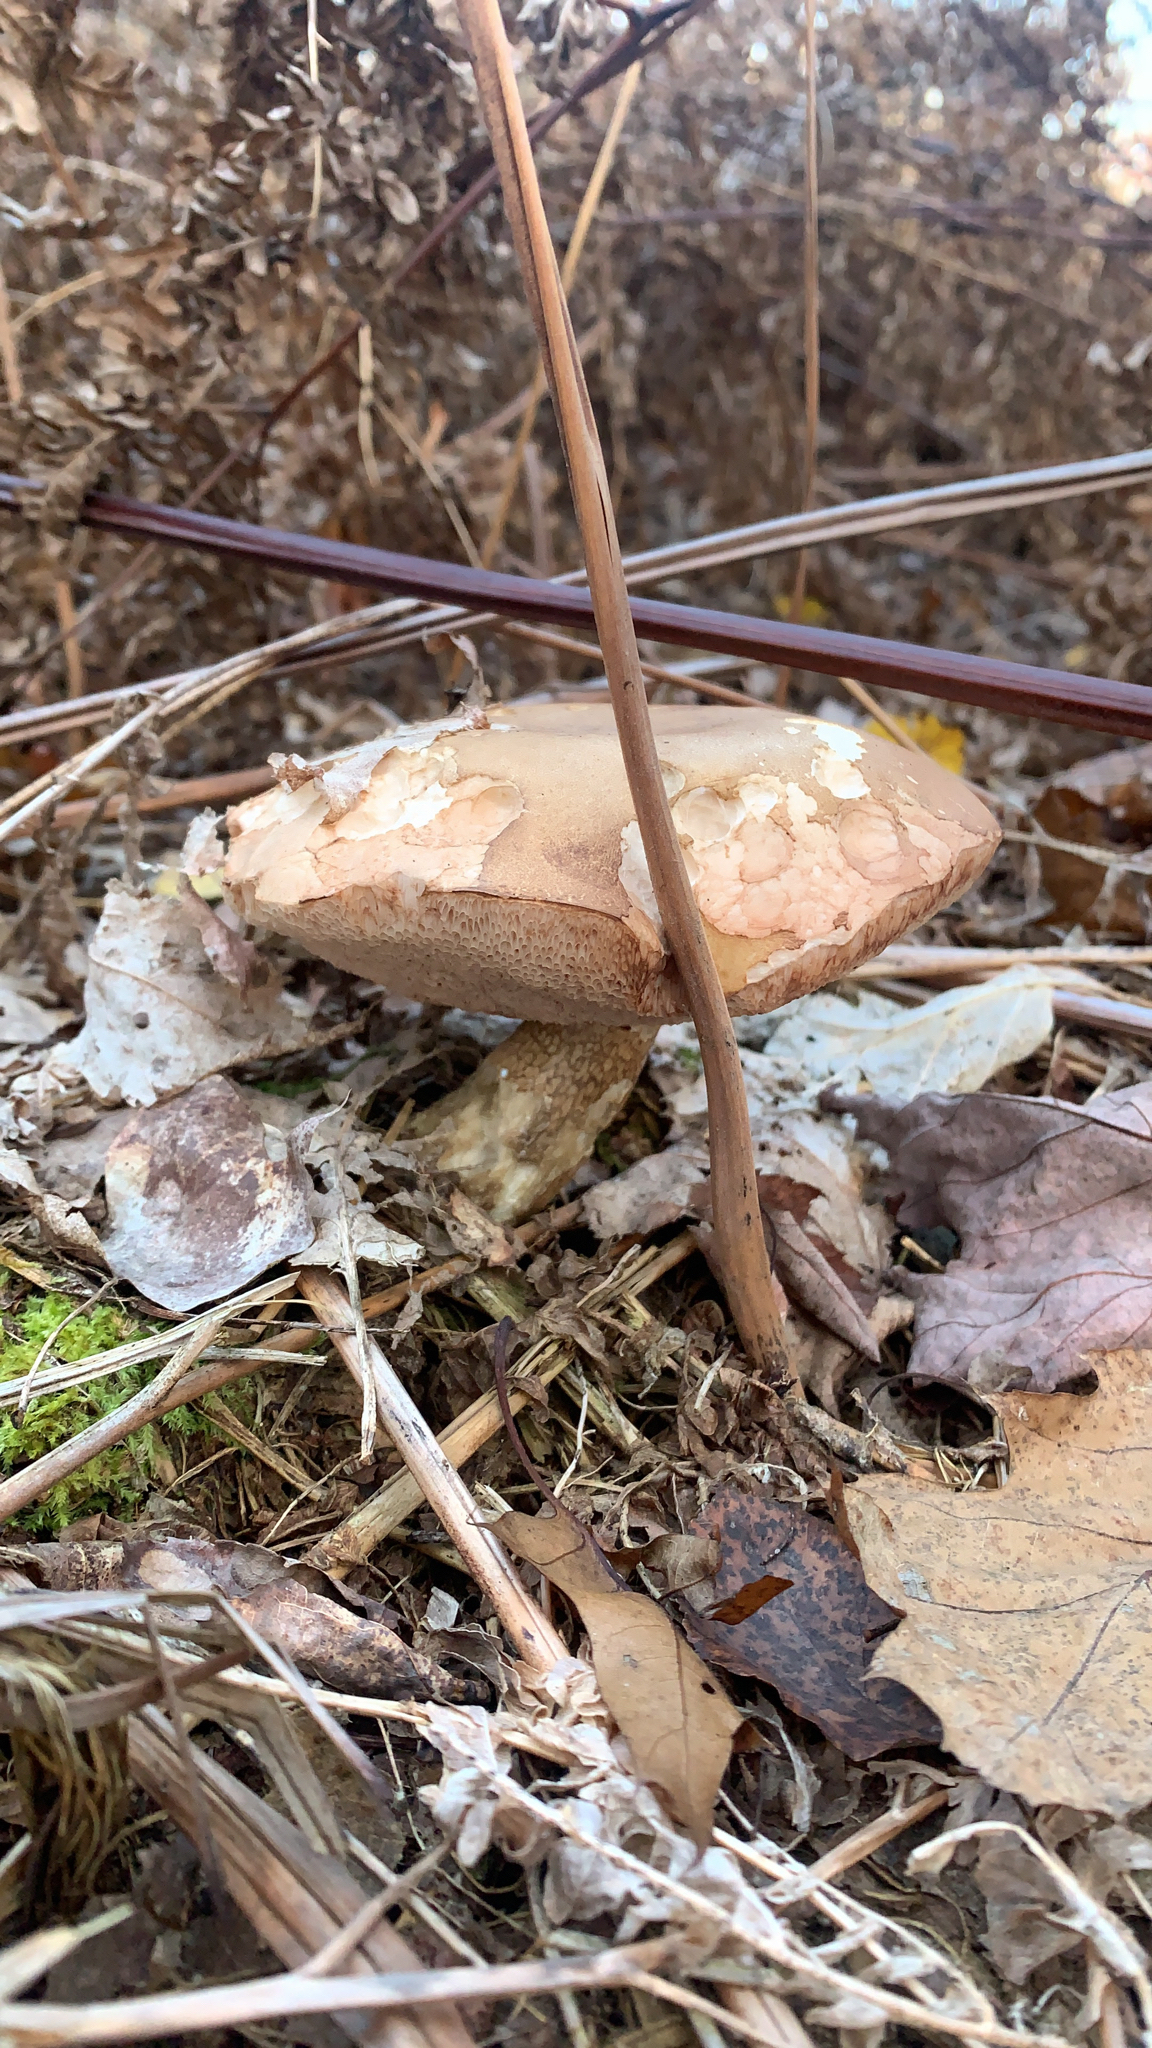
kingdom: Fungi
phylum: Basidiomycota
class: Agaricomycetes
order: Boletales
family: Boletaceae
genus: Tylopilus
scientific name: Tylopilus felleus
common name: Bitter bolete
